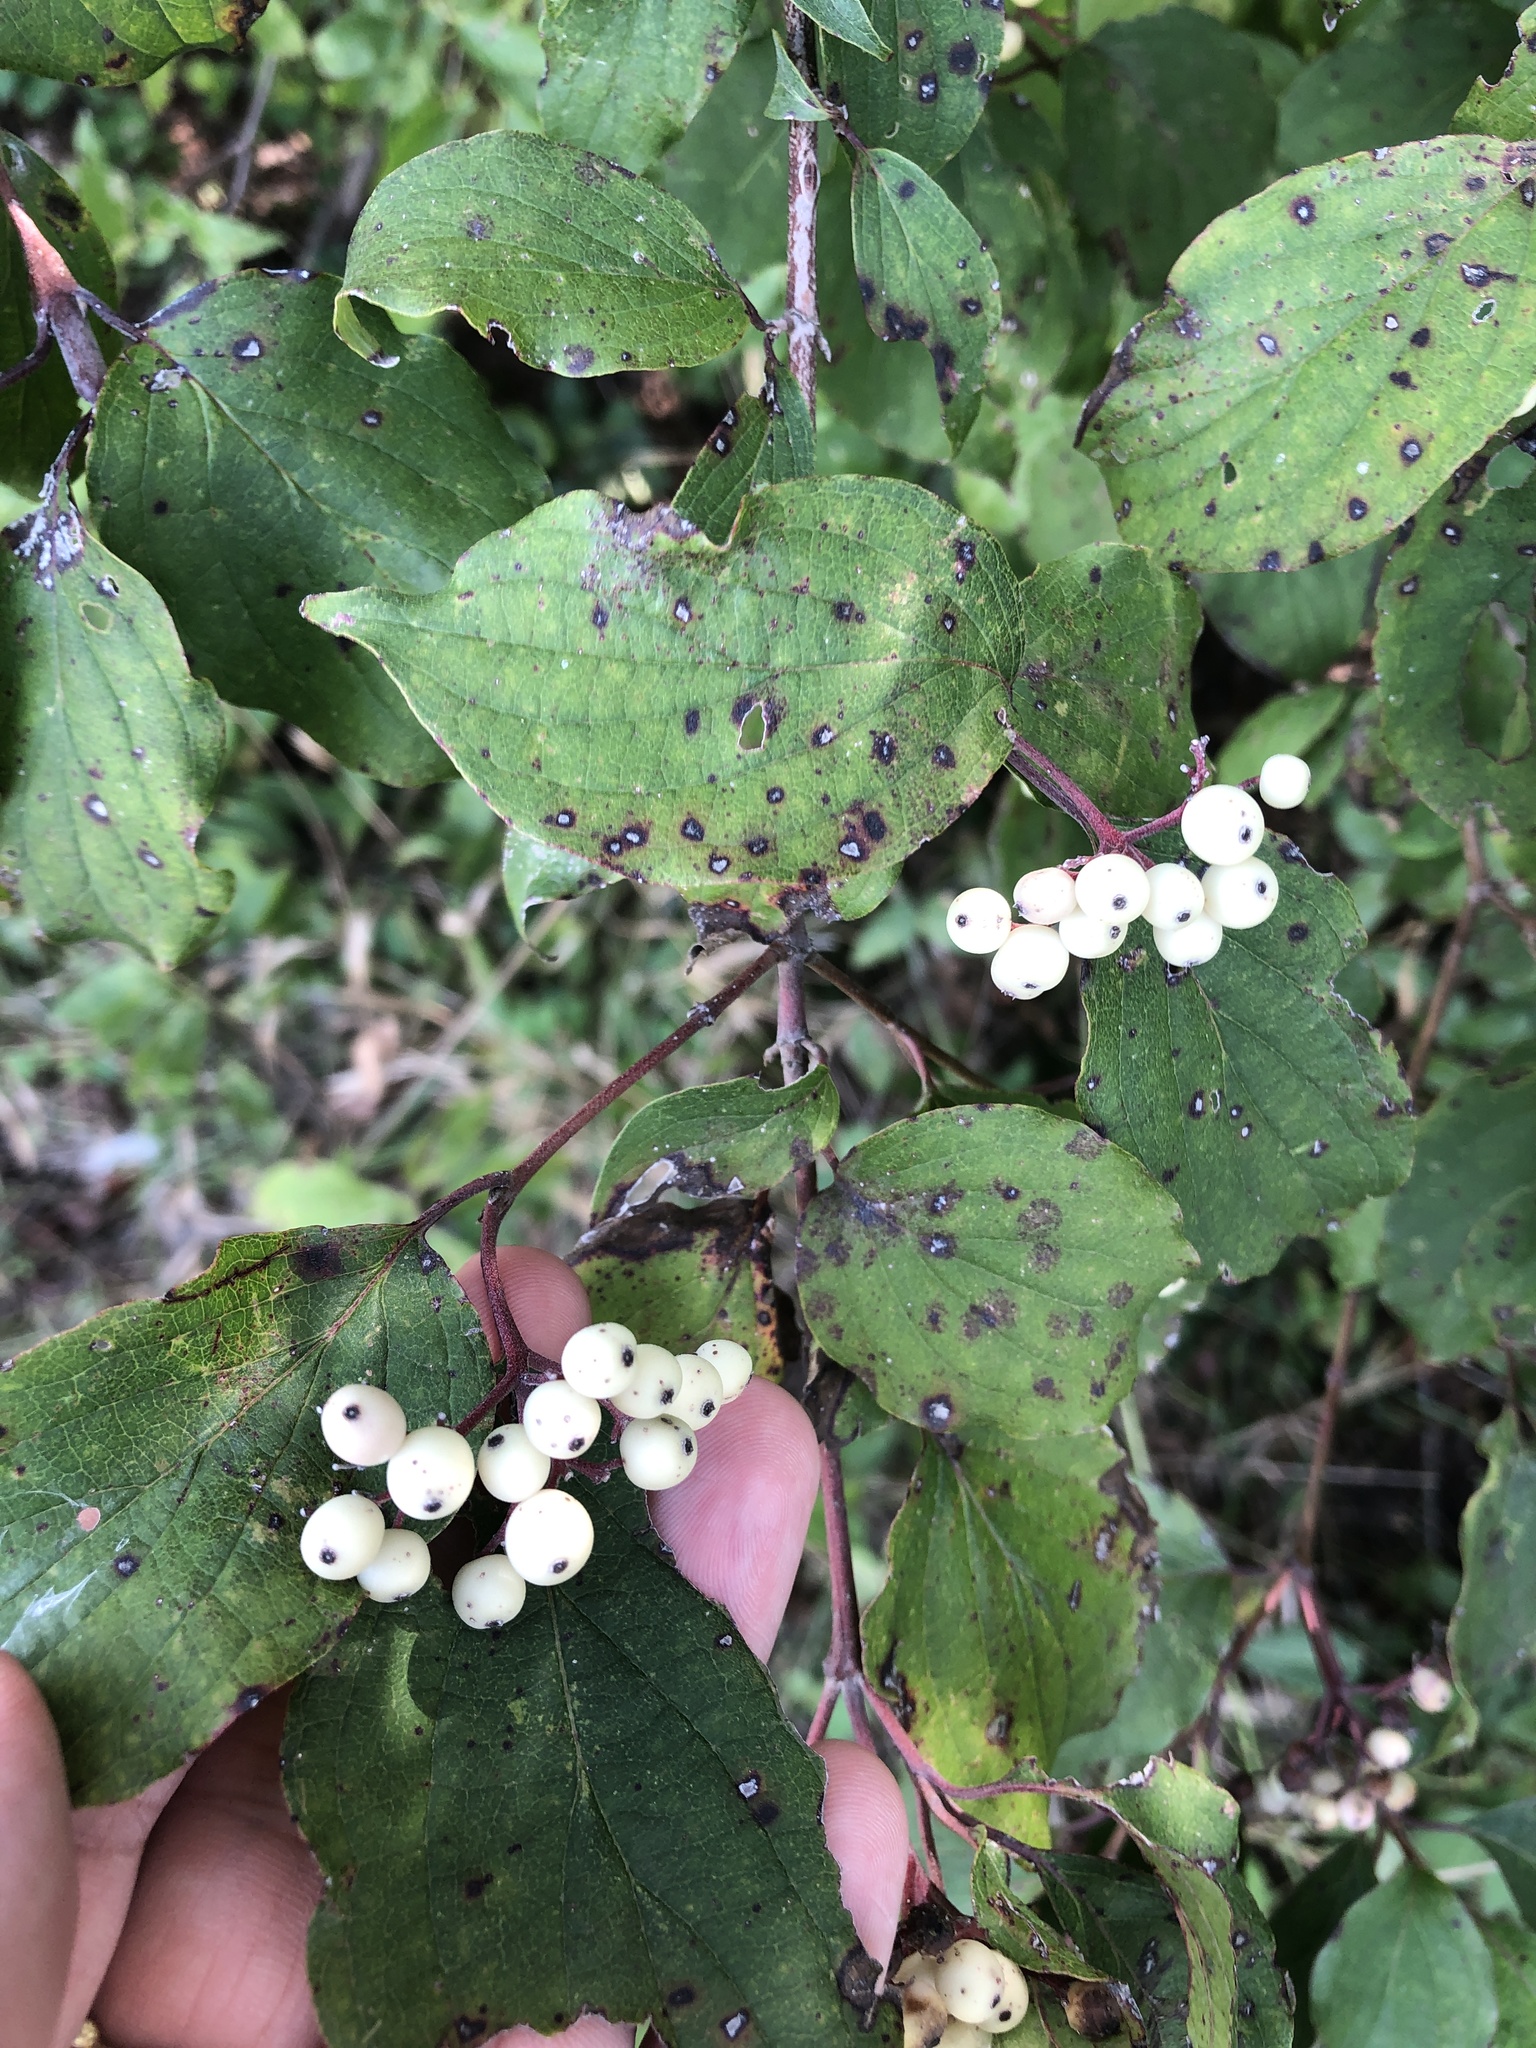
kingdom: Plantae
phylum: Tracheophyta
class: Magnoliopsida
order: Cornales
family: Cornaceae
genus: Cornus
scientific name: Cornus drummondii
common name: Rough-leaf dogwood
